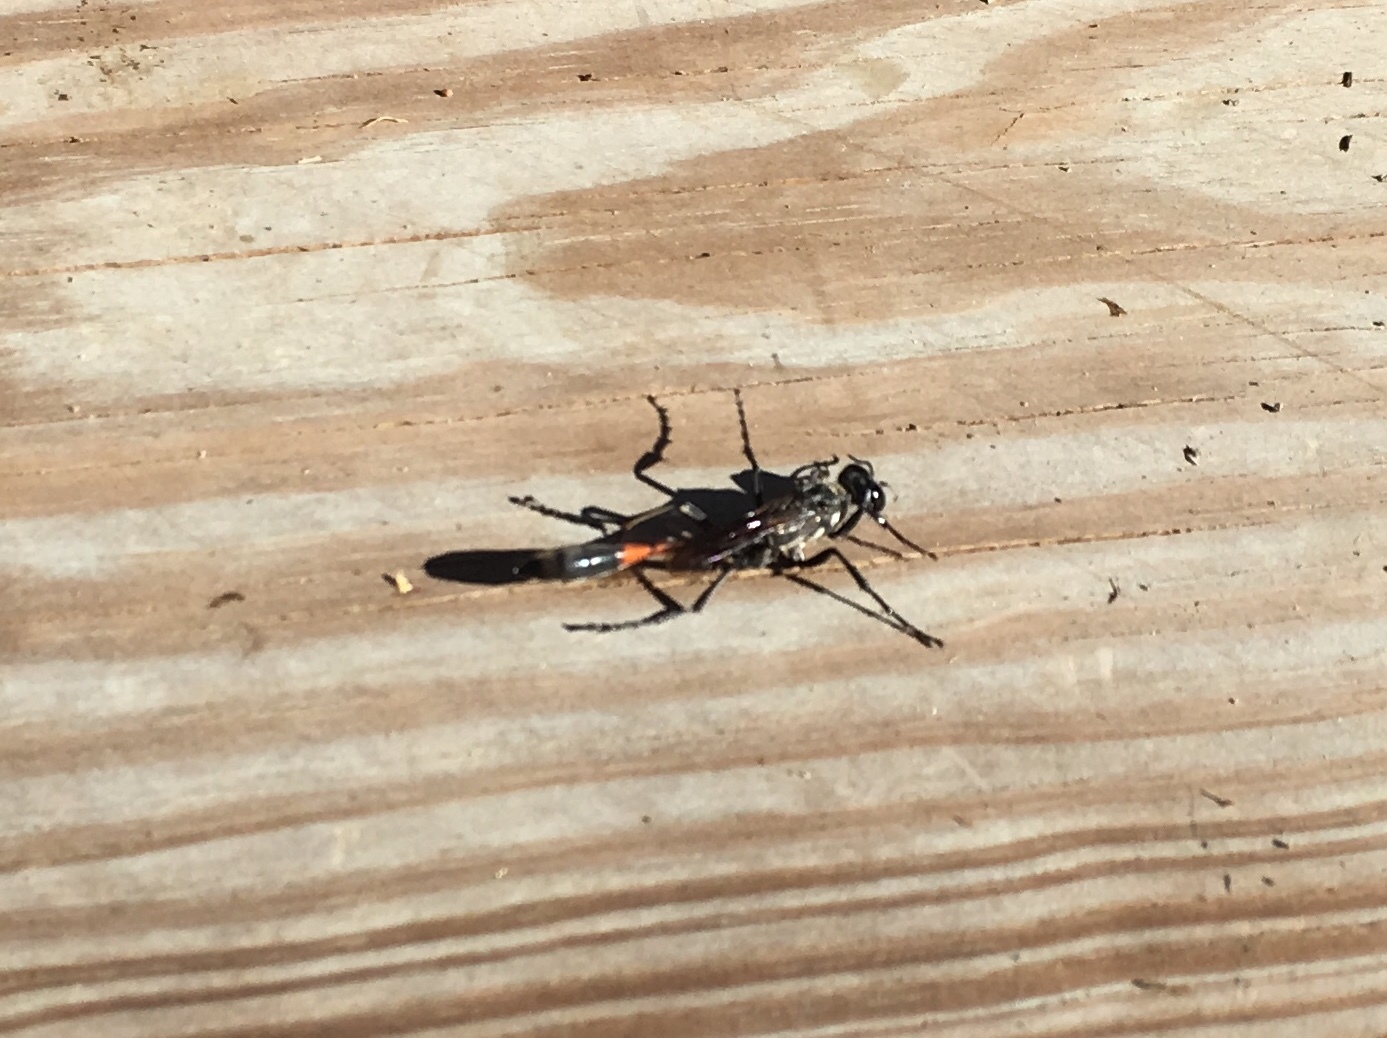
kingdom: Animalia
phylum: Arthropoda
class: Insecta
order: Hymenoptera
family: Sphecidae
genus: Ammophila
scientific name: Ammophila procera
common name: Common thread-waisted wasp
